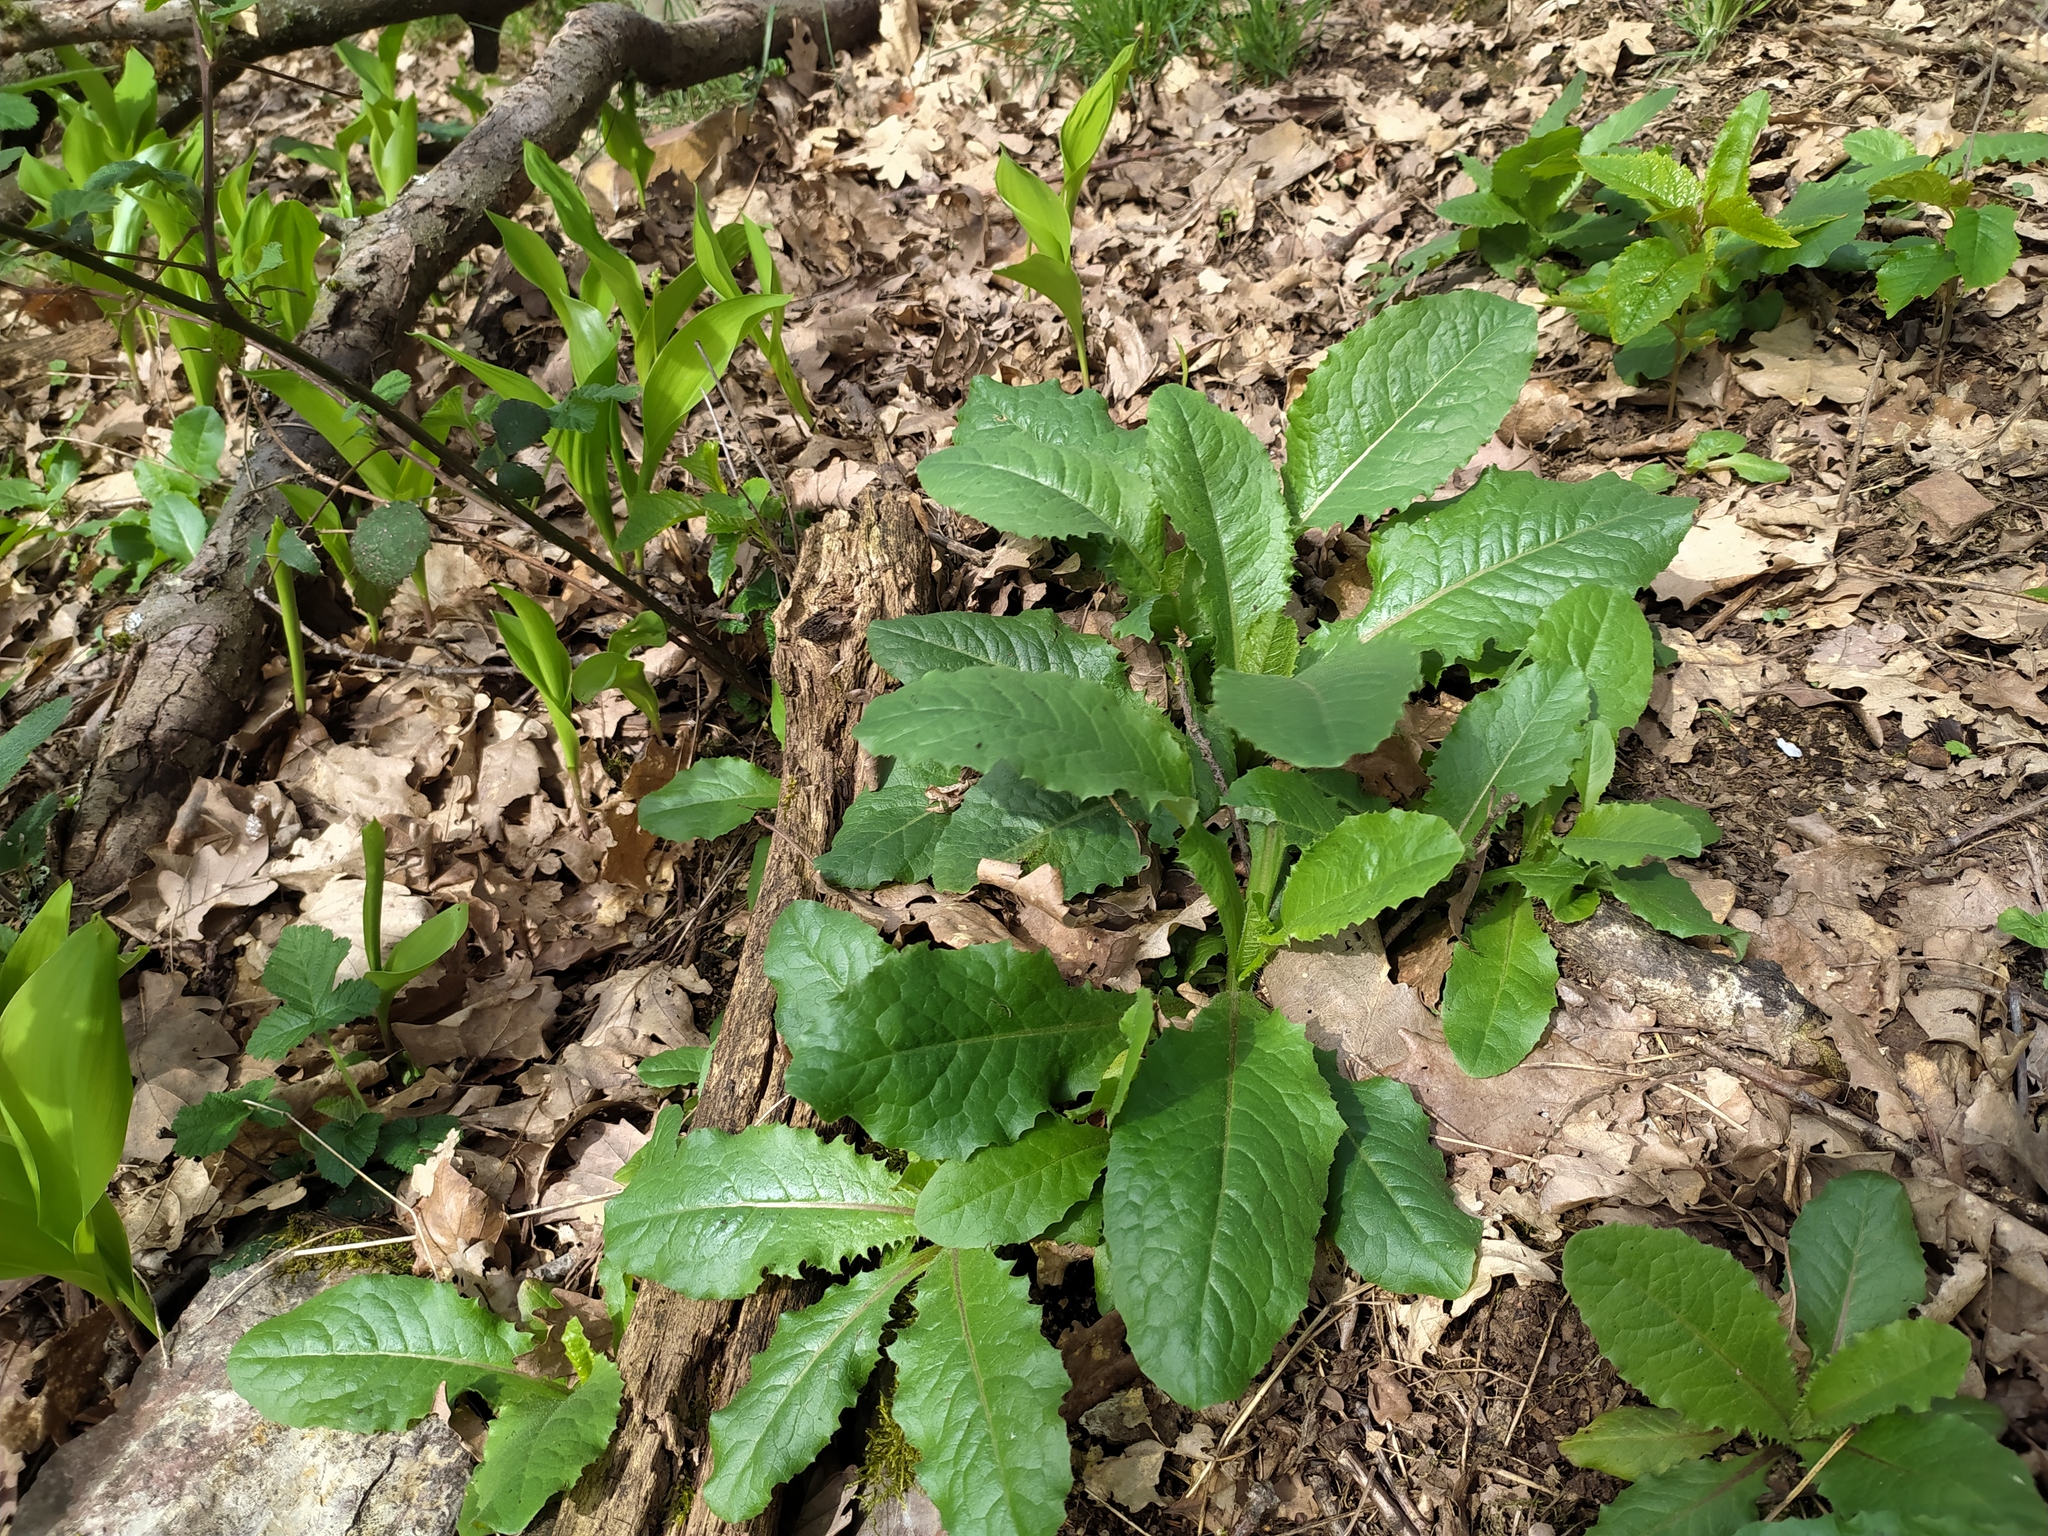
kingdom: Plantae
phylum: Tracheophyta
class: Magnoliopsida
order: Asterales
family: Asteraceae
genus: Lactuca
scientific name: Lactuca virosa
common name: Great lettuce
